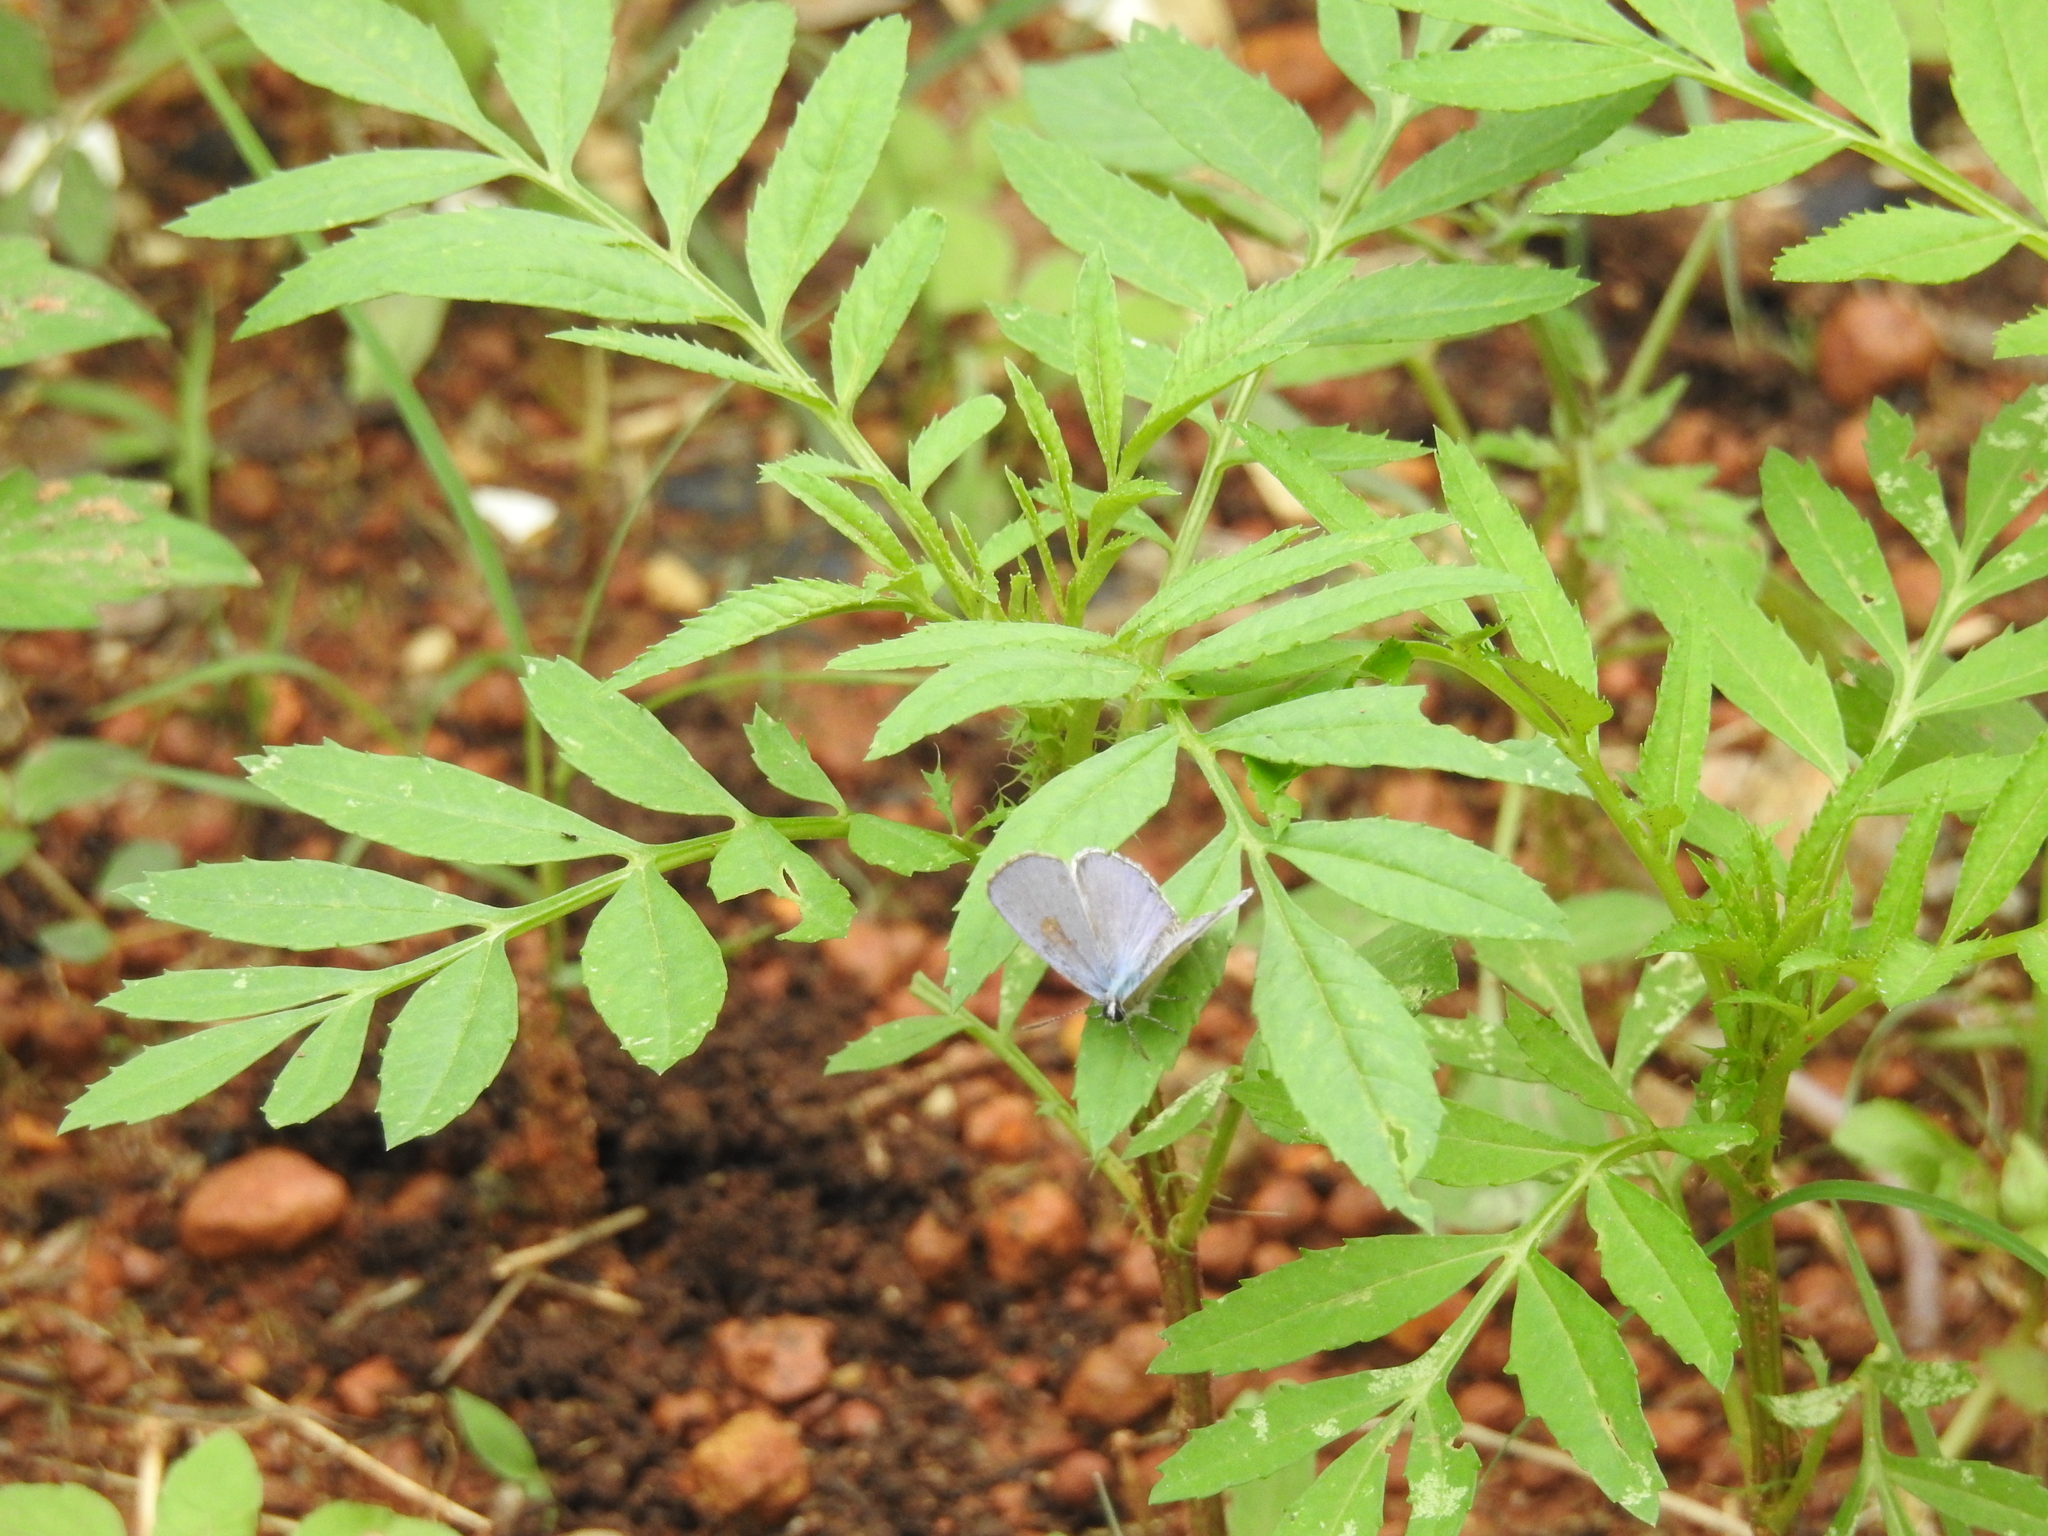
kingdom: Animalia
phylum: Arthropoda
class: Insecta
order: Lepidoptera
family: Lycaenidae
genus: Chilades
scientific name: Chilades laius
